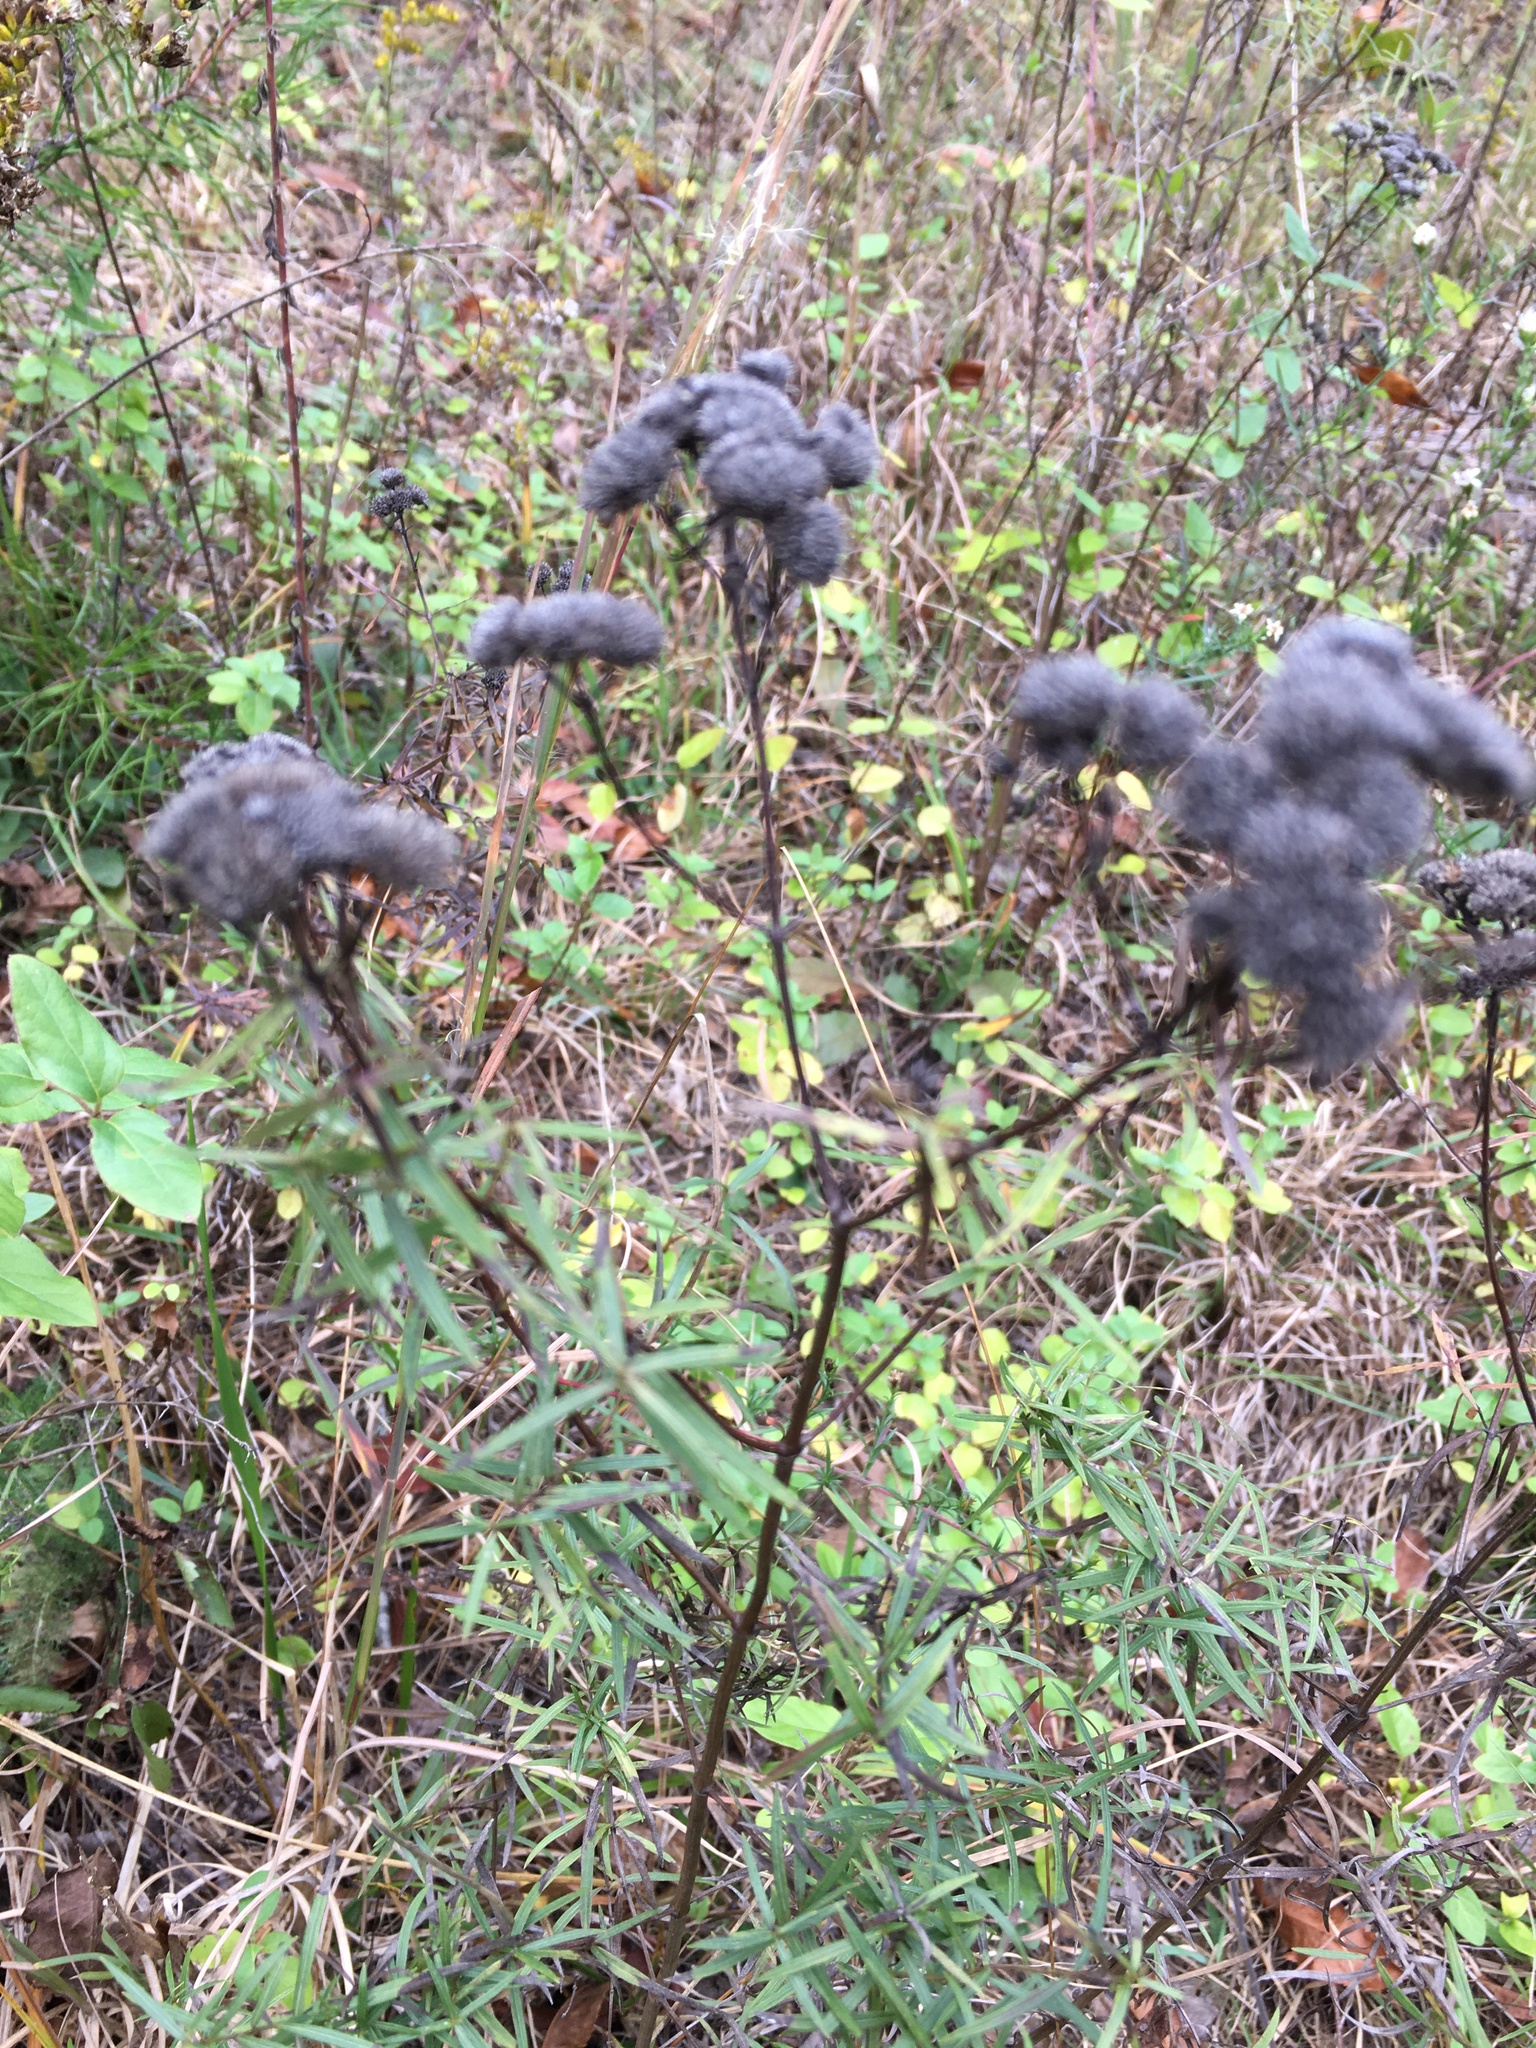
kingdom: Plantae
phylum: Tracheophyta
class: Magnoliopsida
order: Lamiales
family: Lamiaceae
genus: Pycnanthemum
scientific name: Pycnanthemum tenuifolium
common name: Narrow-leaf mountain-mint
